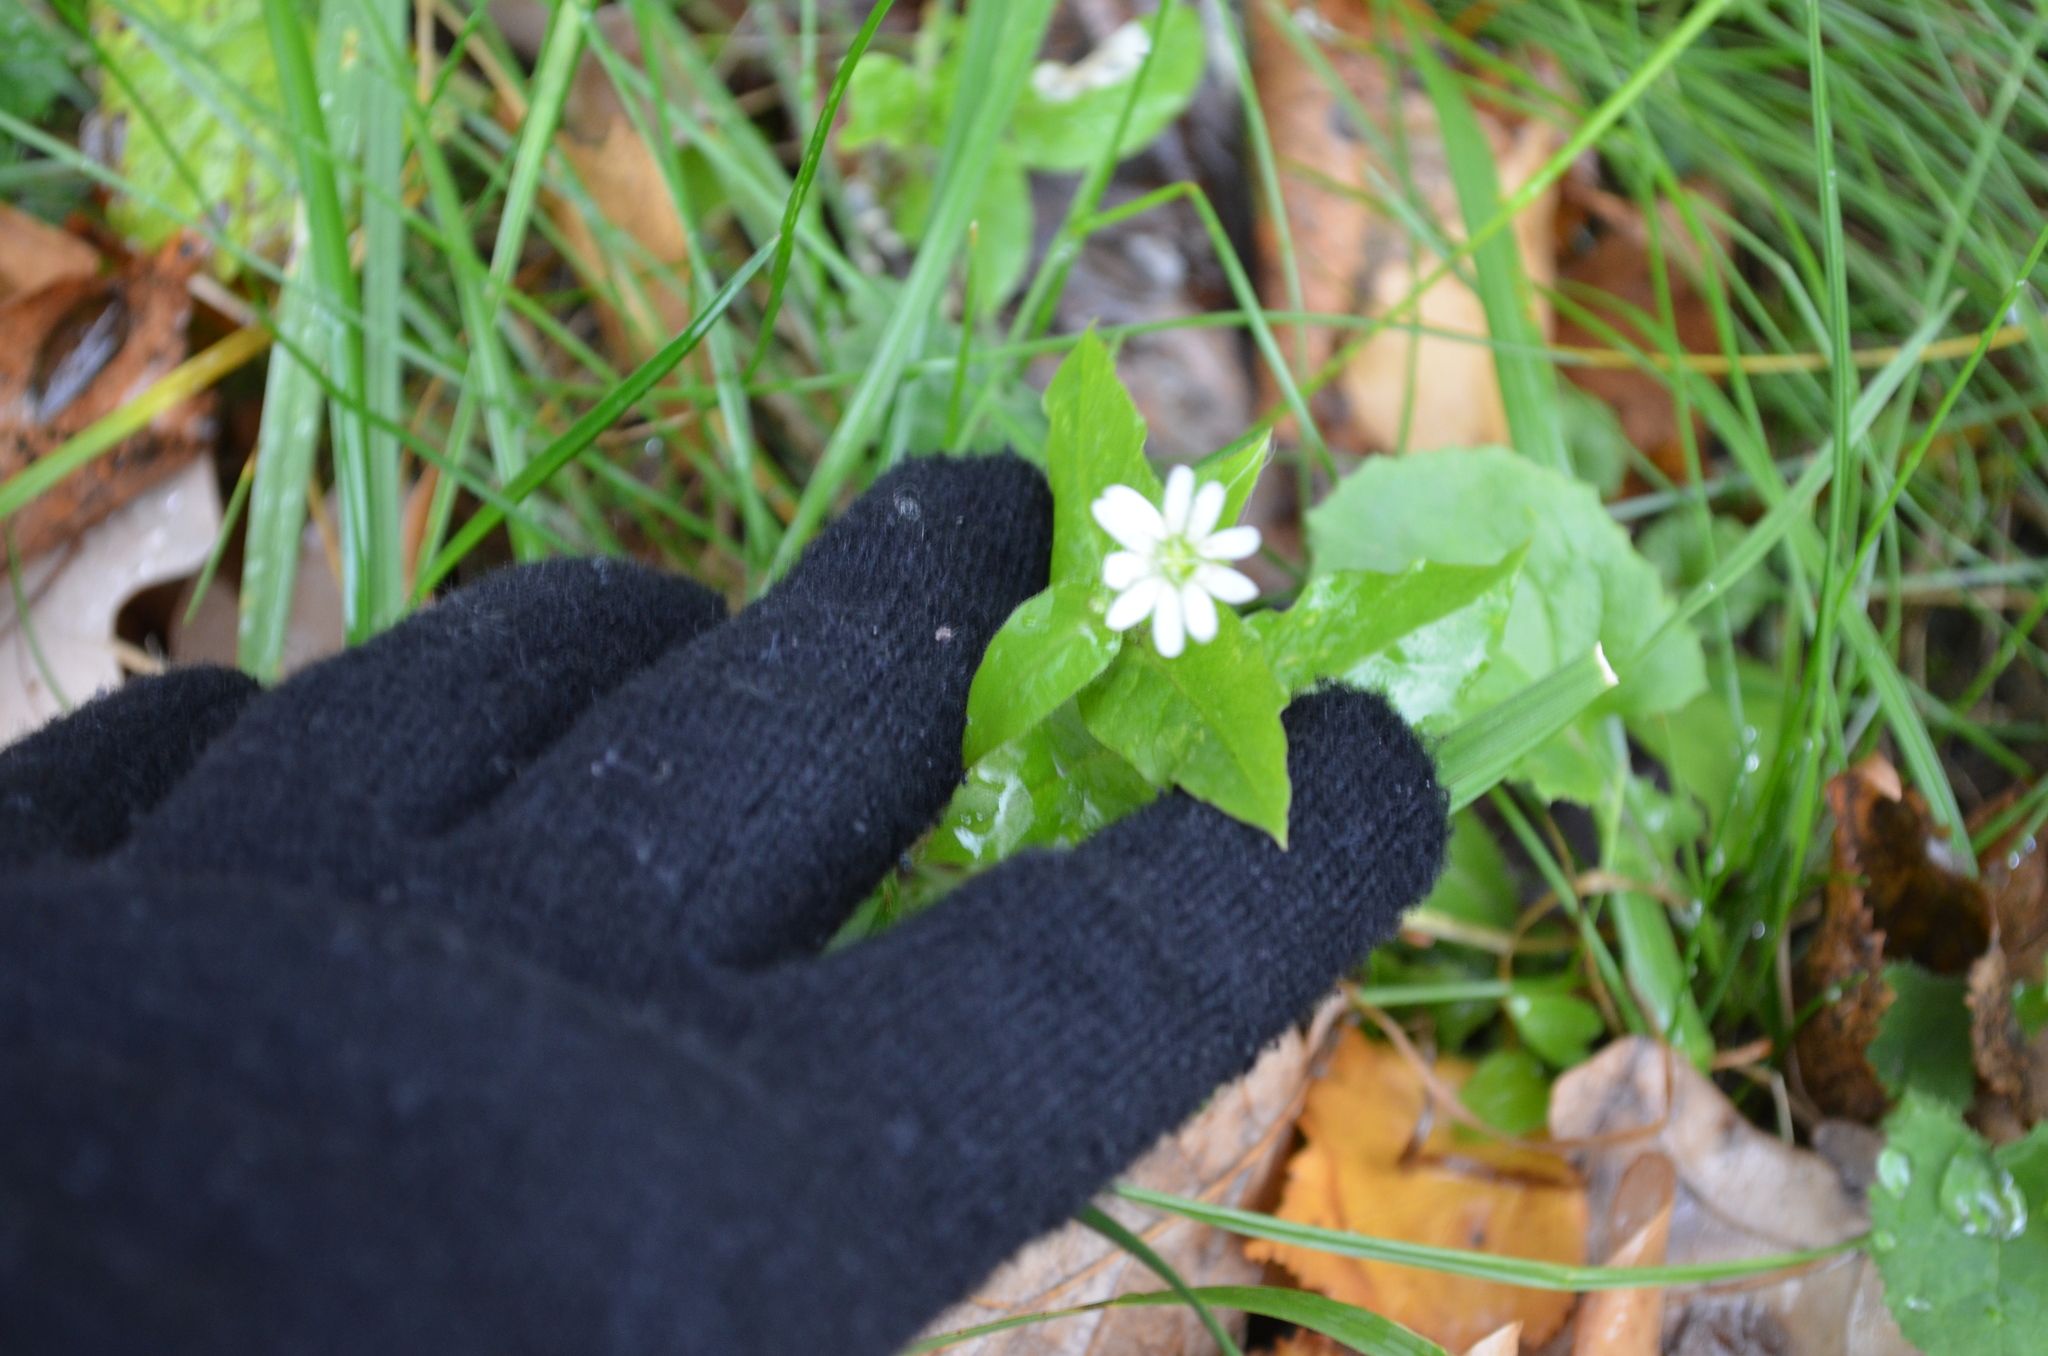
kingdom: Plantae
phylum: Tracheophyta
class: Magnoliopsida
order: Caryophyllales
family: Caryophyllaceae
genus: Stellaria
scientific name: Stellaria aquatica
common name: Water chickweed
